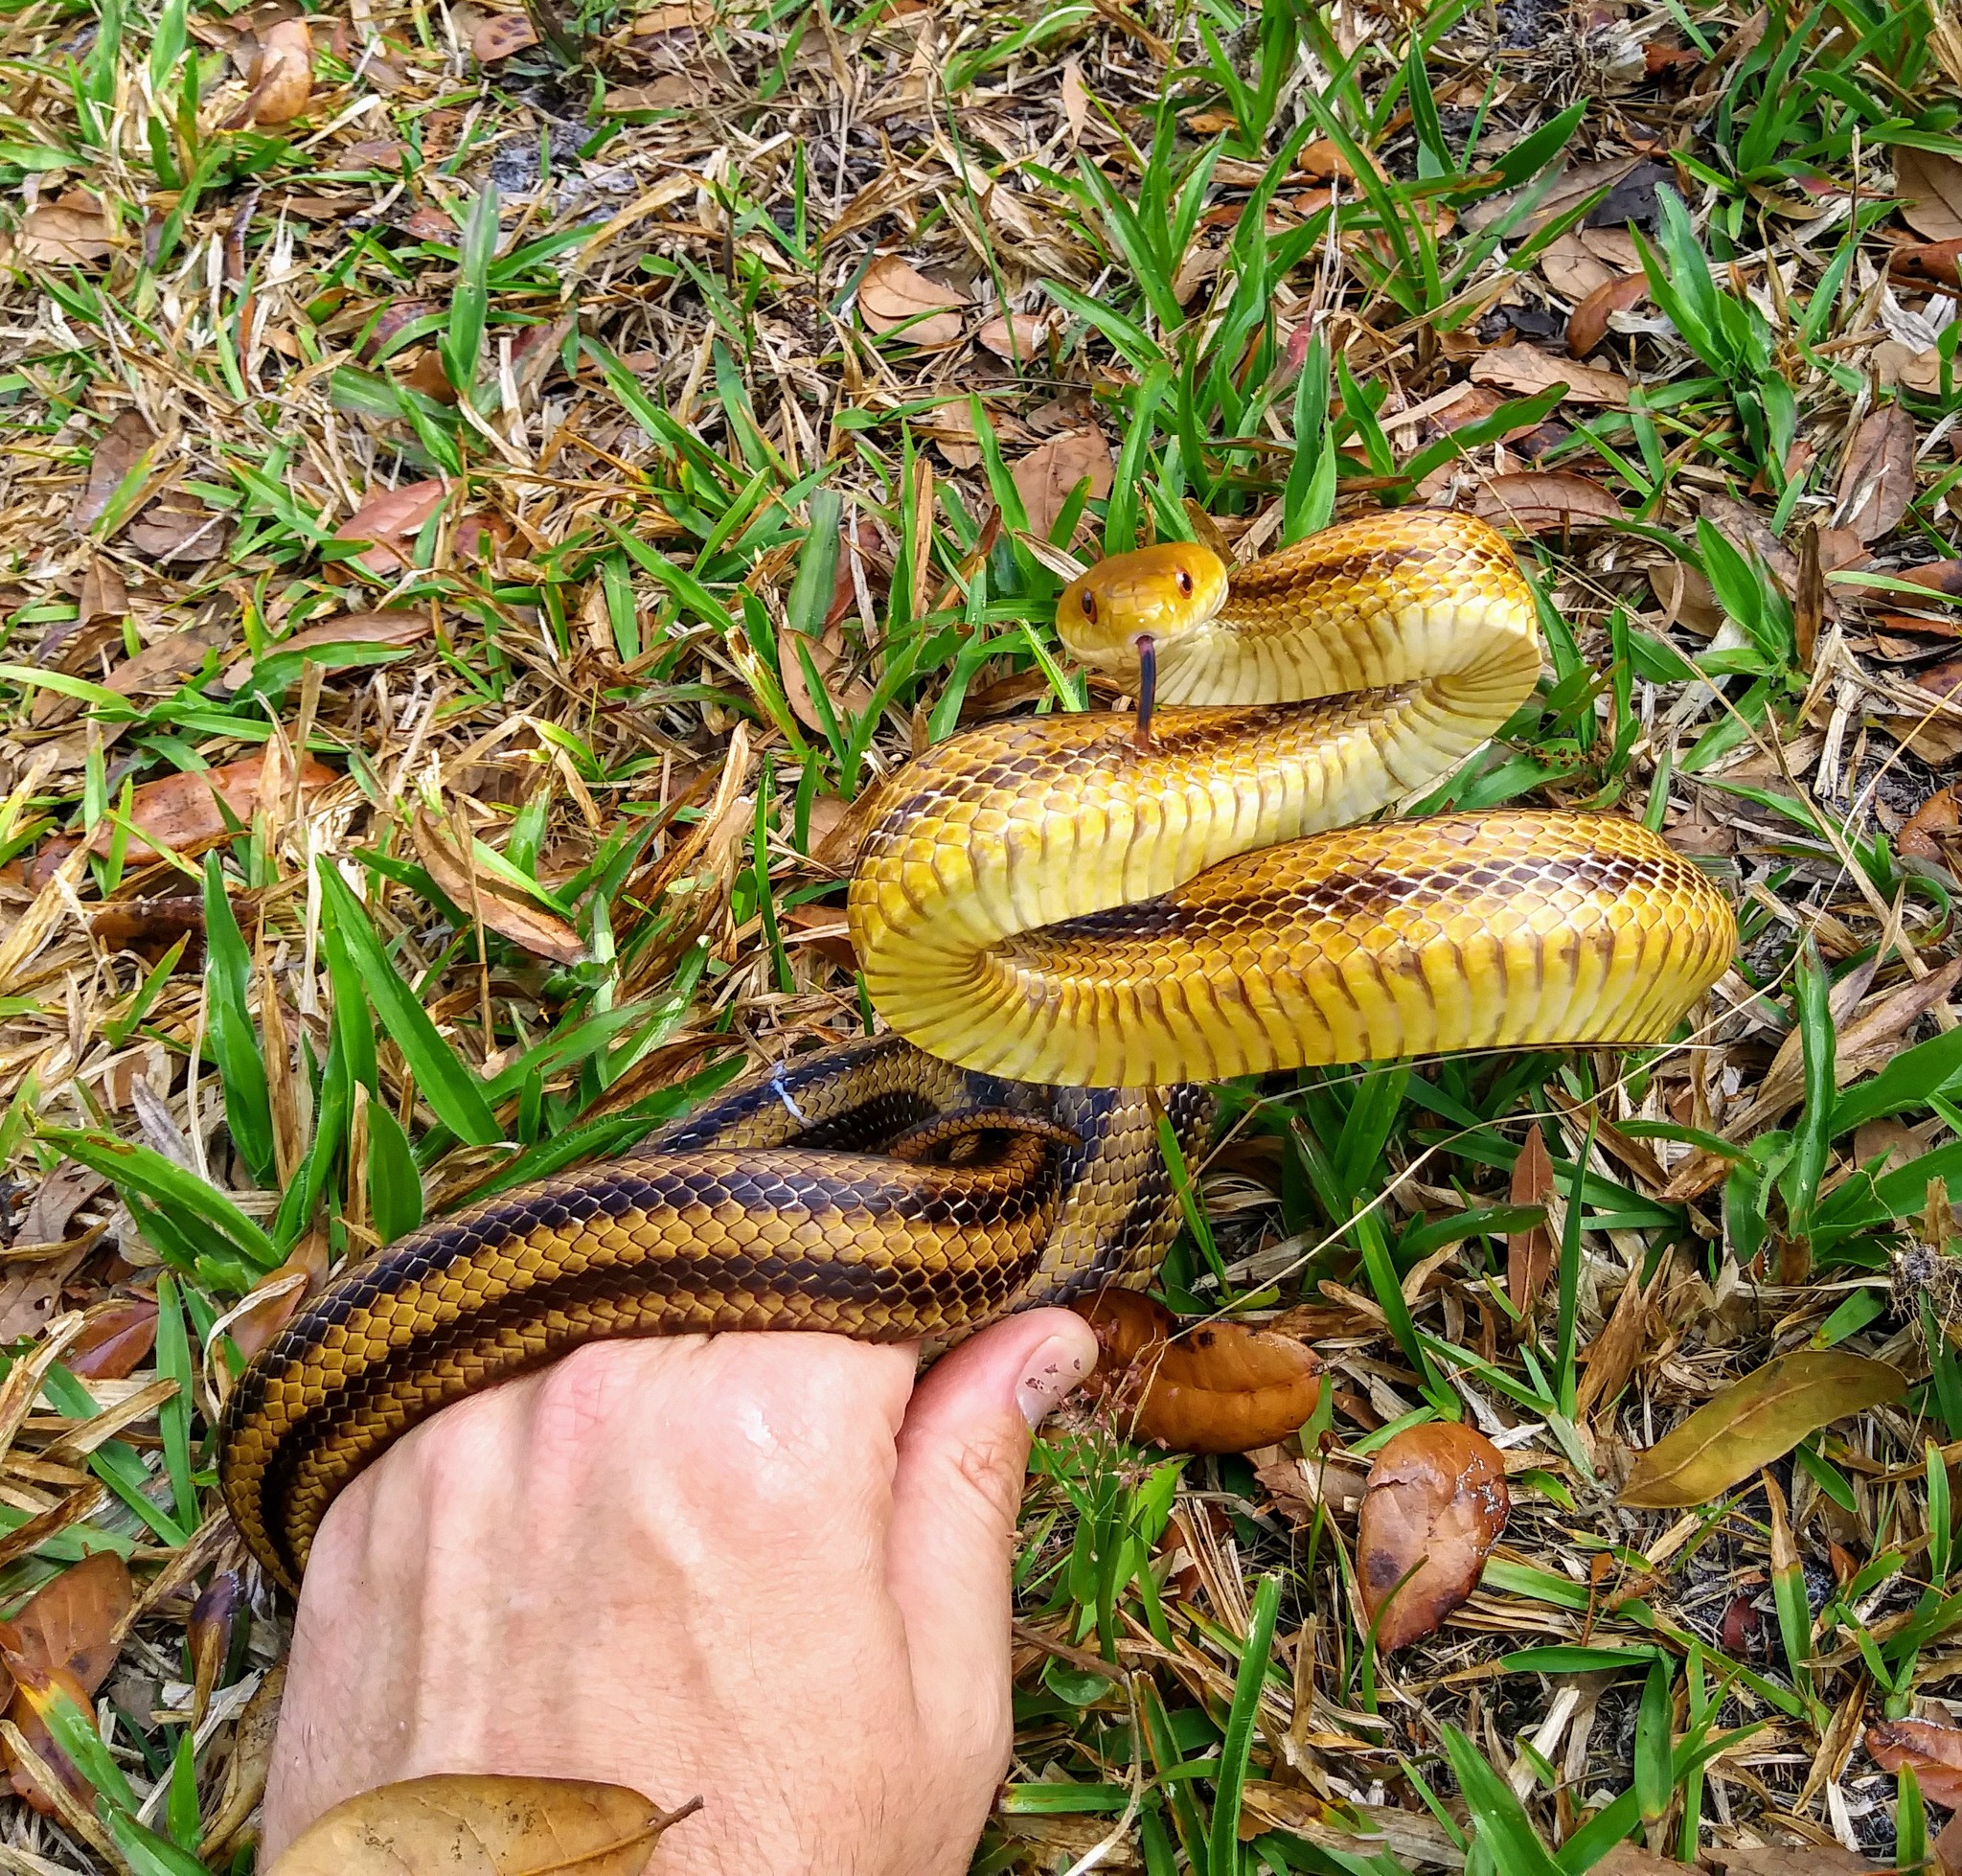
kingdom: Animalia
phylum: Chordata
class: Squamata
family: Colubridae
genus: Pantherophis
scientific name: Pantherophis alleghaniensis
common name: Eastern rat snake
